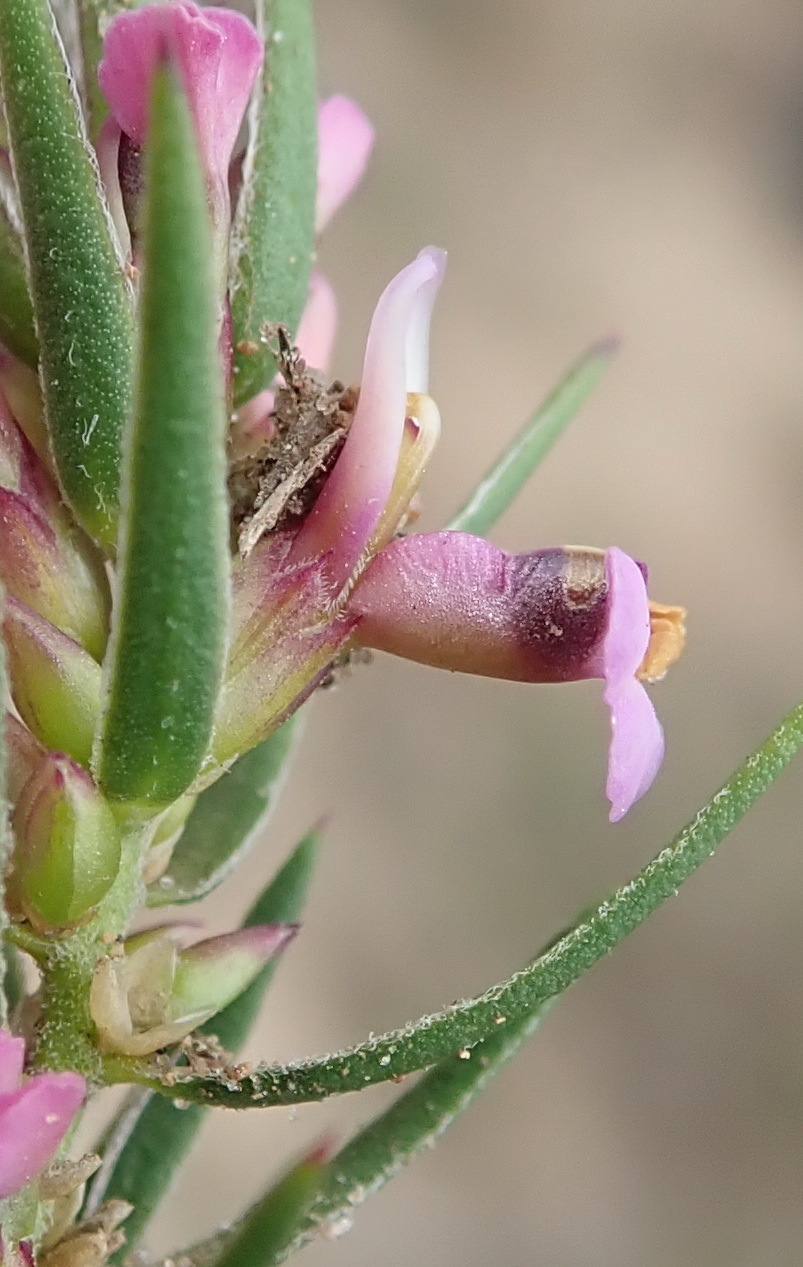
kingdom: Plantae
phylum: Tracheophyta
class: Magnoliopsida
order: Fabales
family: Polygalaceae
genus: Muraltia
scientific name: Muraltia ericoides
